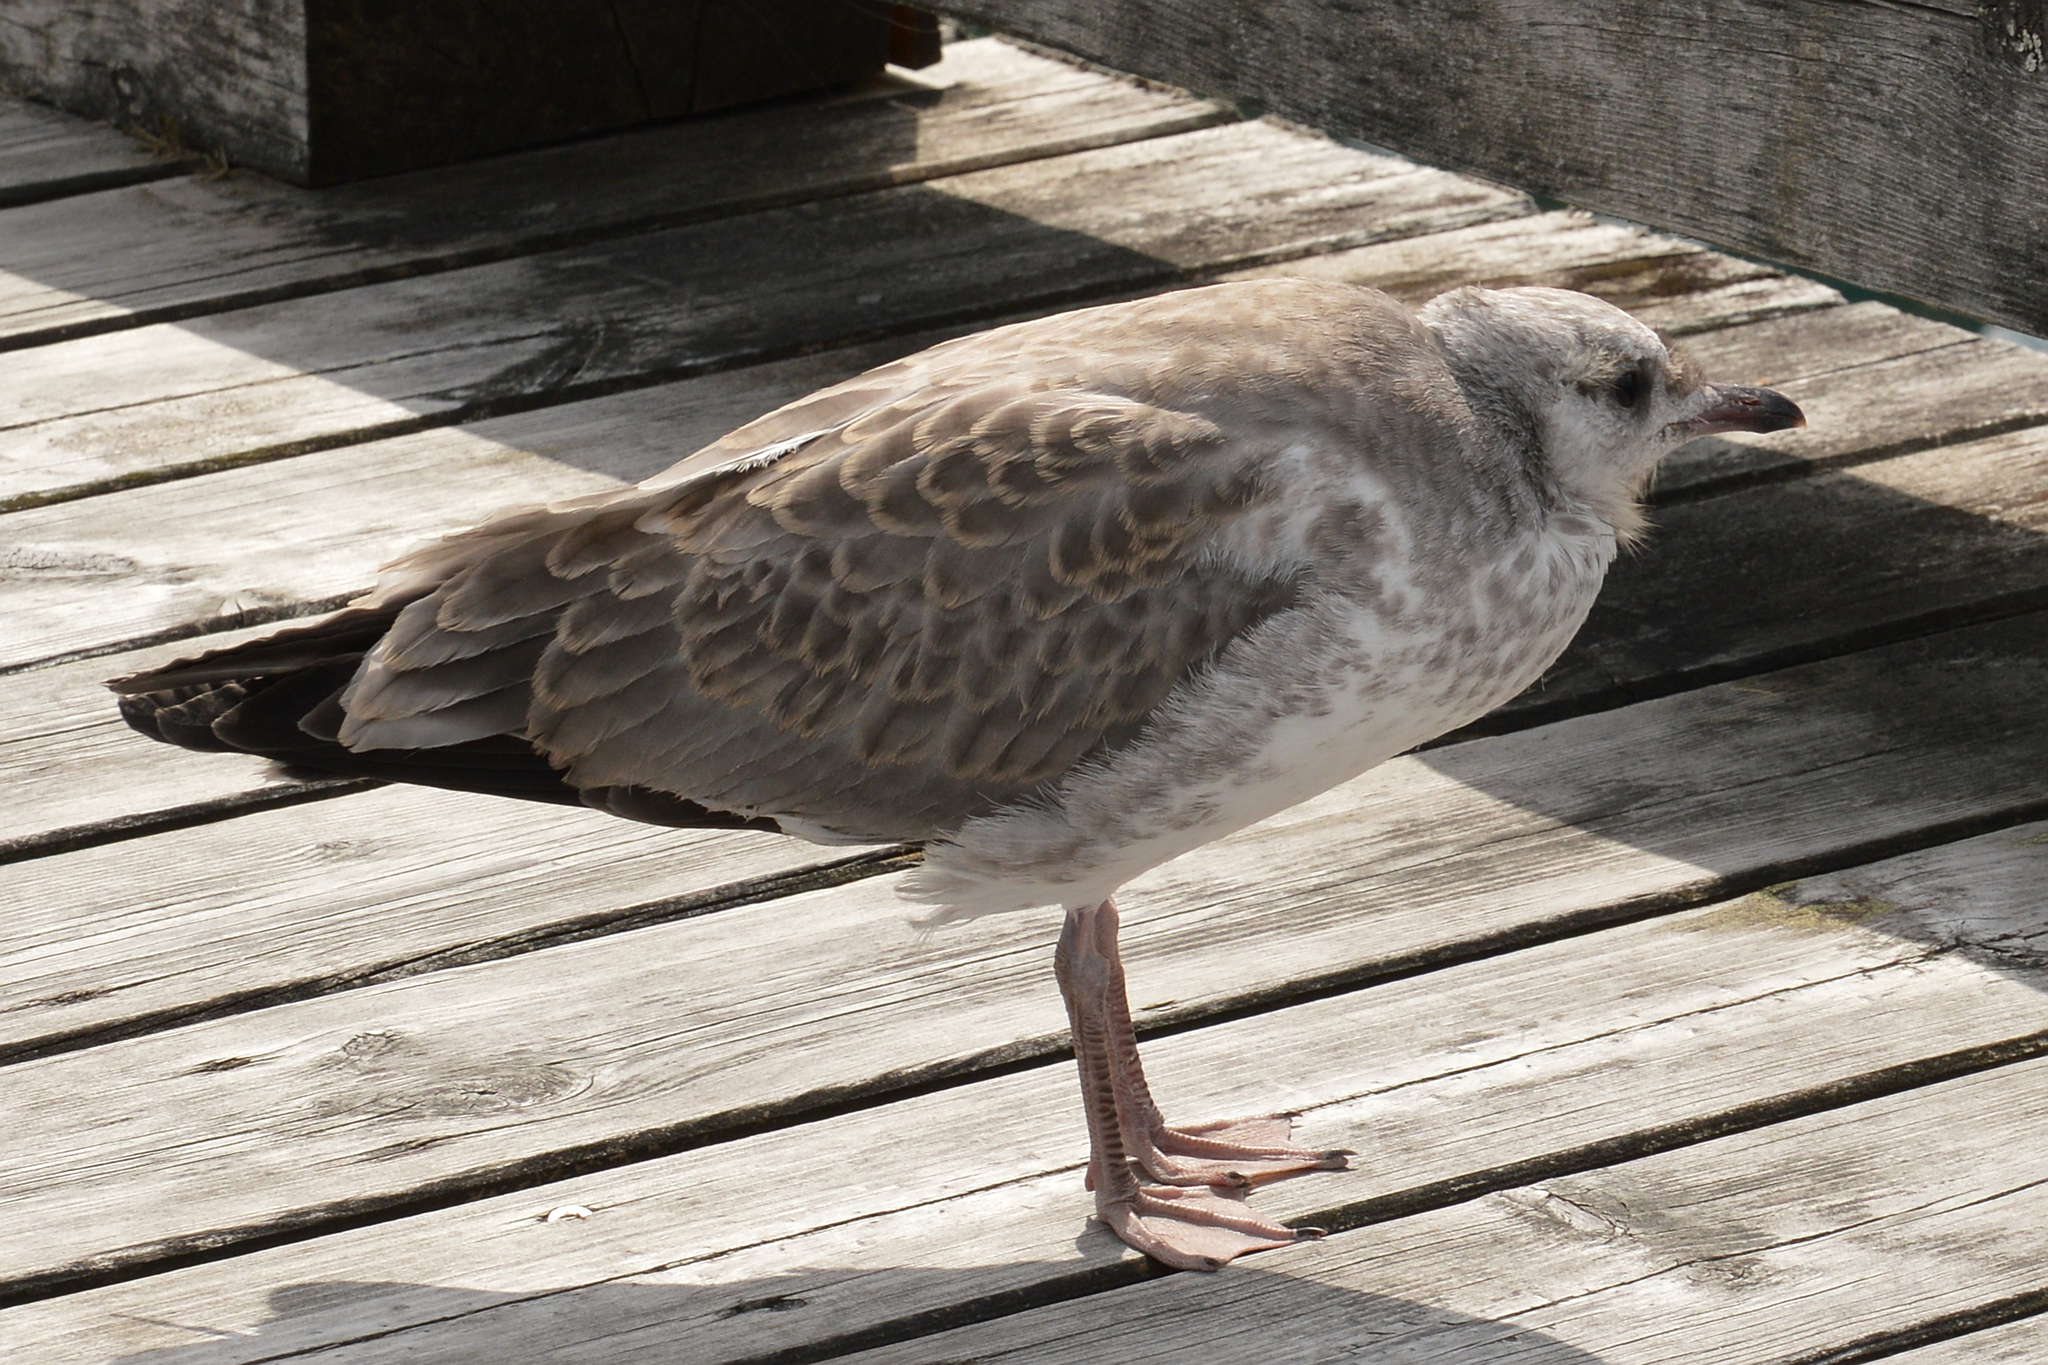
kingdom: Animalia
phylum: Chordata
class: Aves
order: Charadriiformes
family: Laridae
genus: Larus
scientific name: Larus canus
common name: Mew gull
